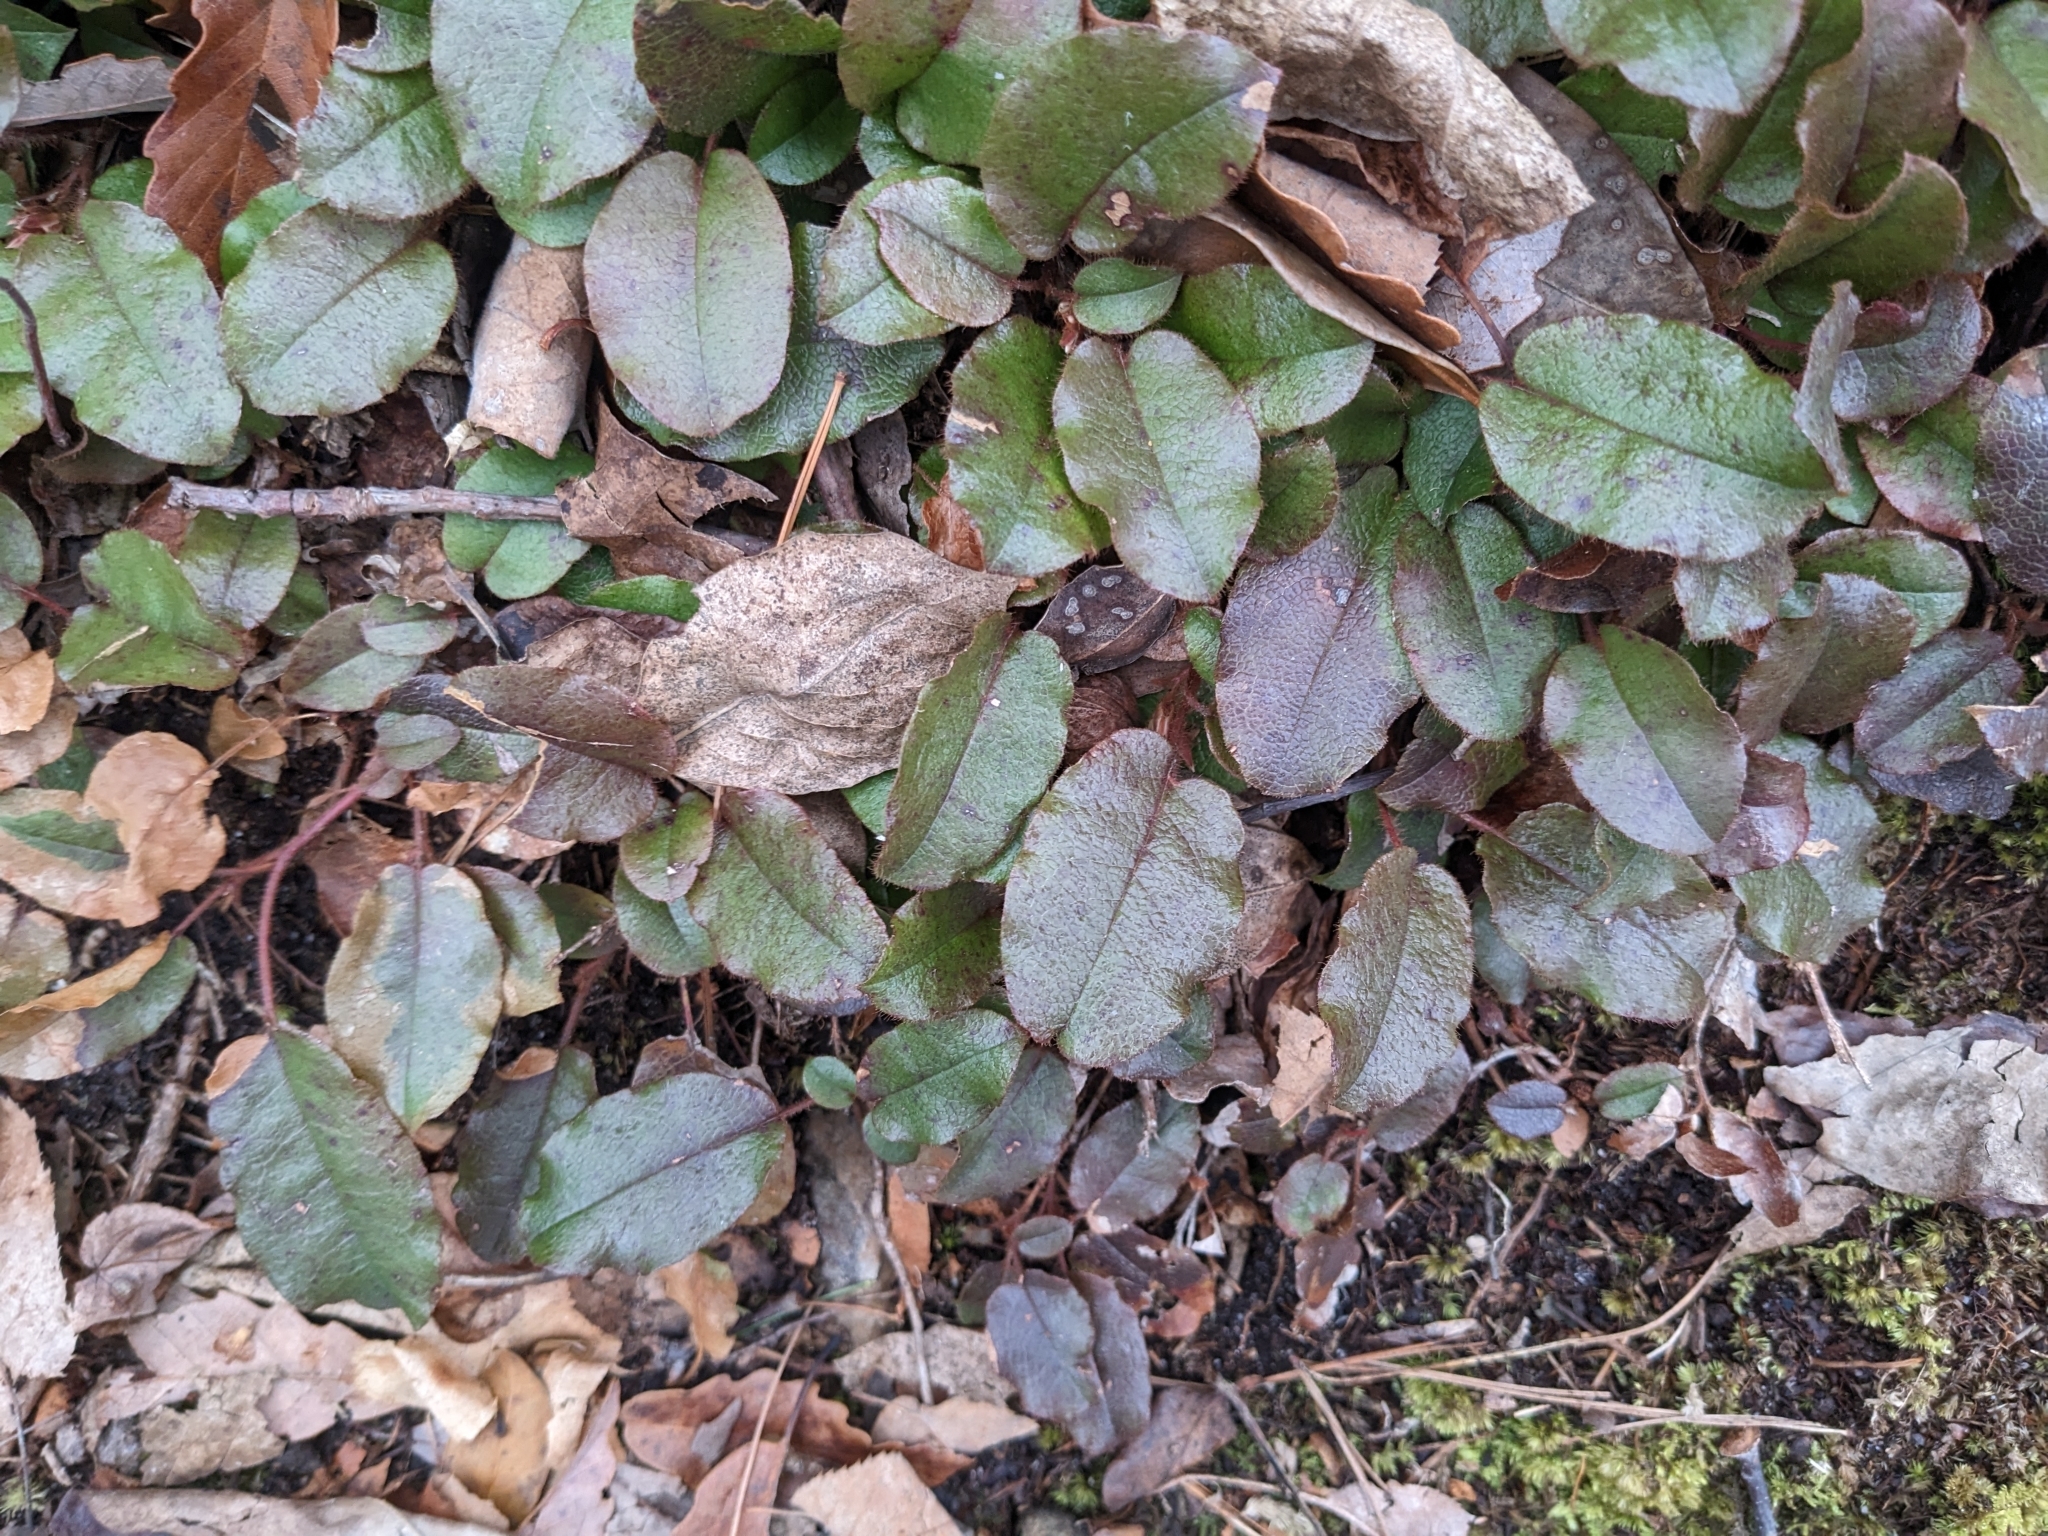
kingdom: Plantae
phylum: Tracheophyta
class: Magnoliopsida
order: Ericales
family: Ericaceae
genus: Epigaea
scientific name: Epigaea repens
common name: Gravelroot
